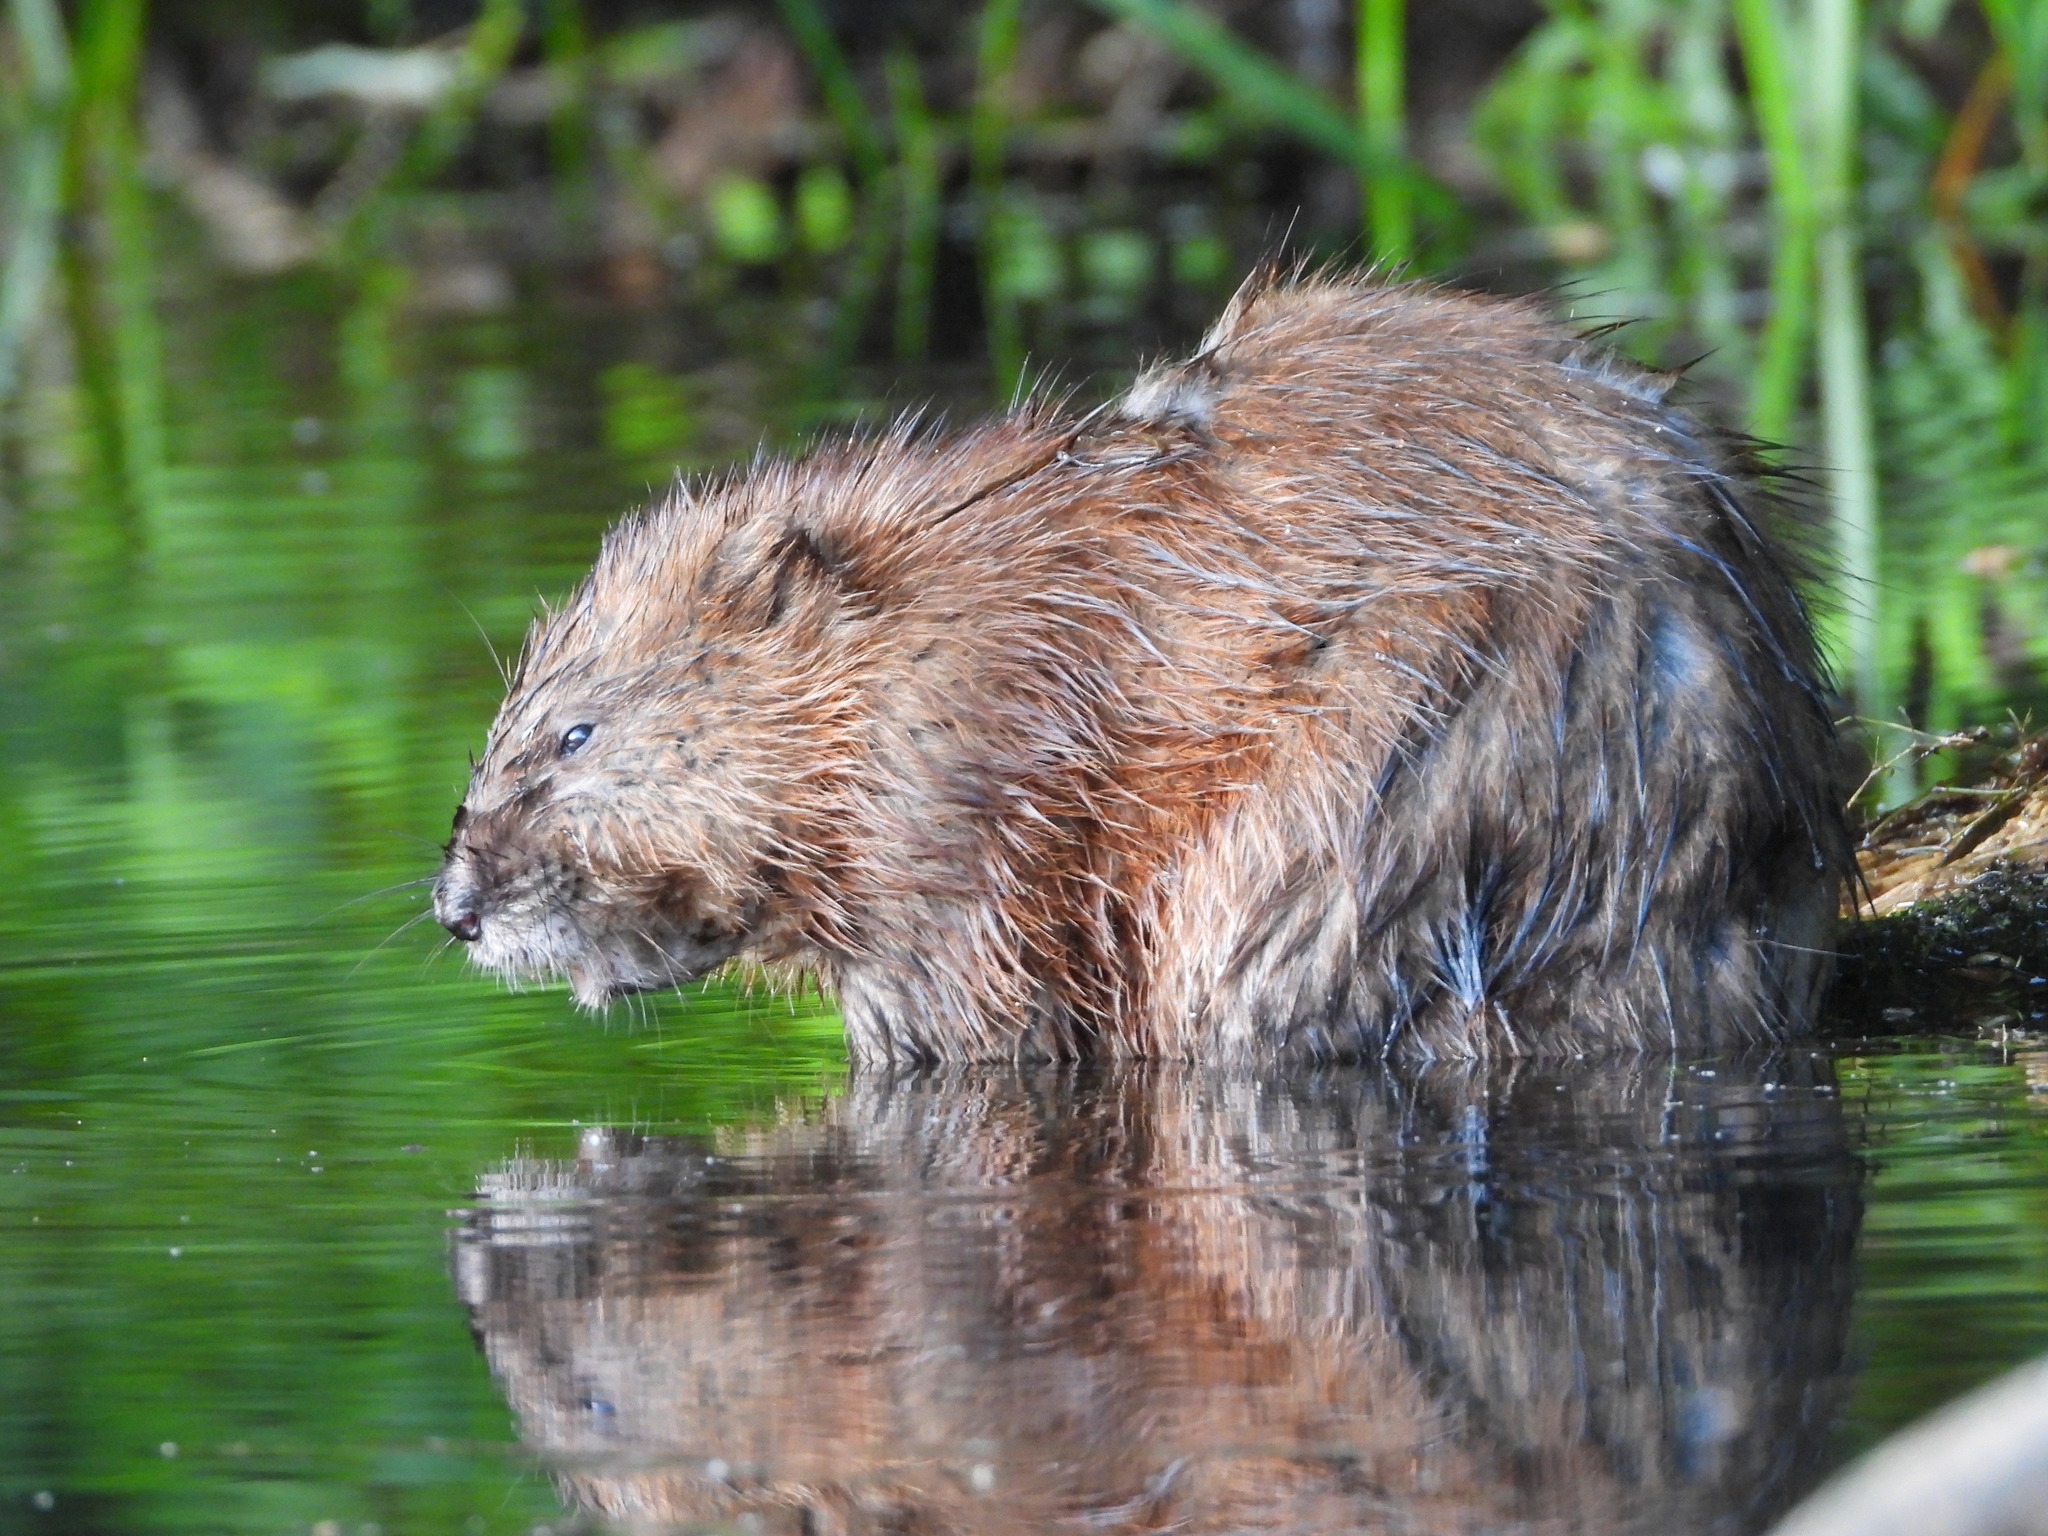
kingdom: Animalia
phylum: Chordata
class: Mammalia
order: Rodentia
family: Cricetidae
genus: Ondatra
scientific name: Ondatra zibethicus
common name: Muskrat
